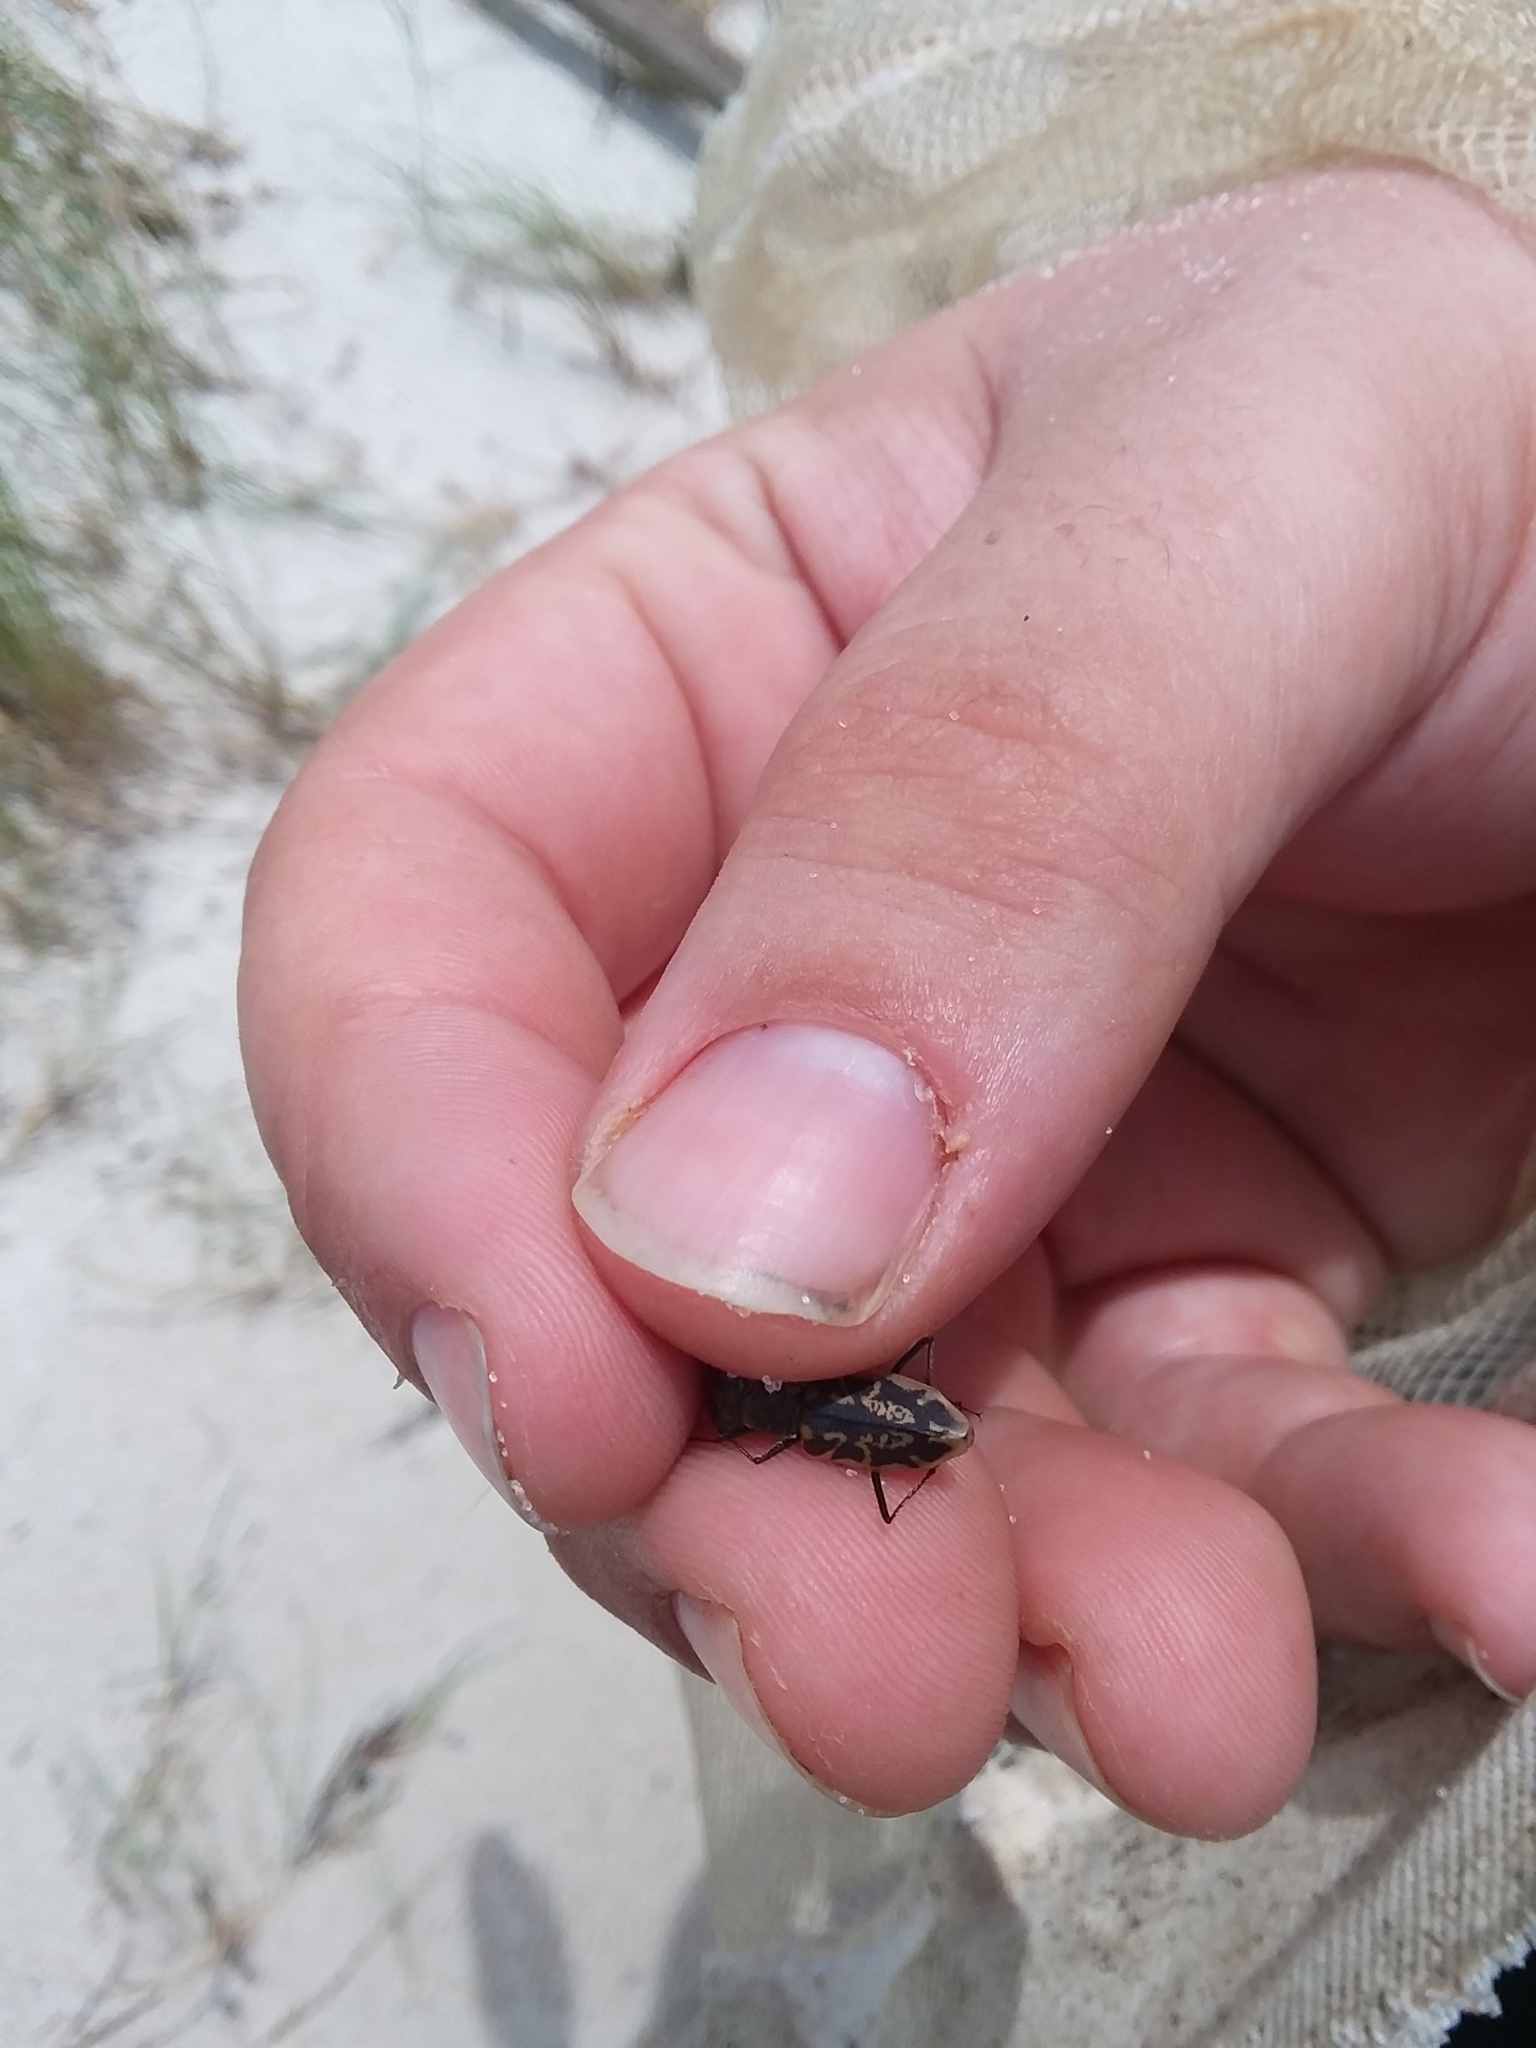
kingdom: Animalia
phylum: Arthropoda
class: Insecta
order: Coleoptera
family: Carabidae
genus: Ellipsoptera
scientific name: Ellipsoptera hamata
